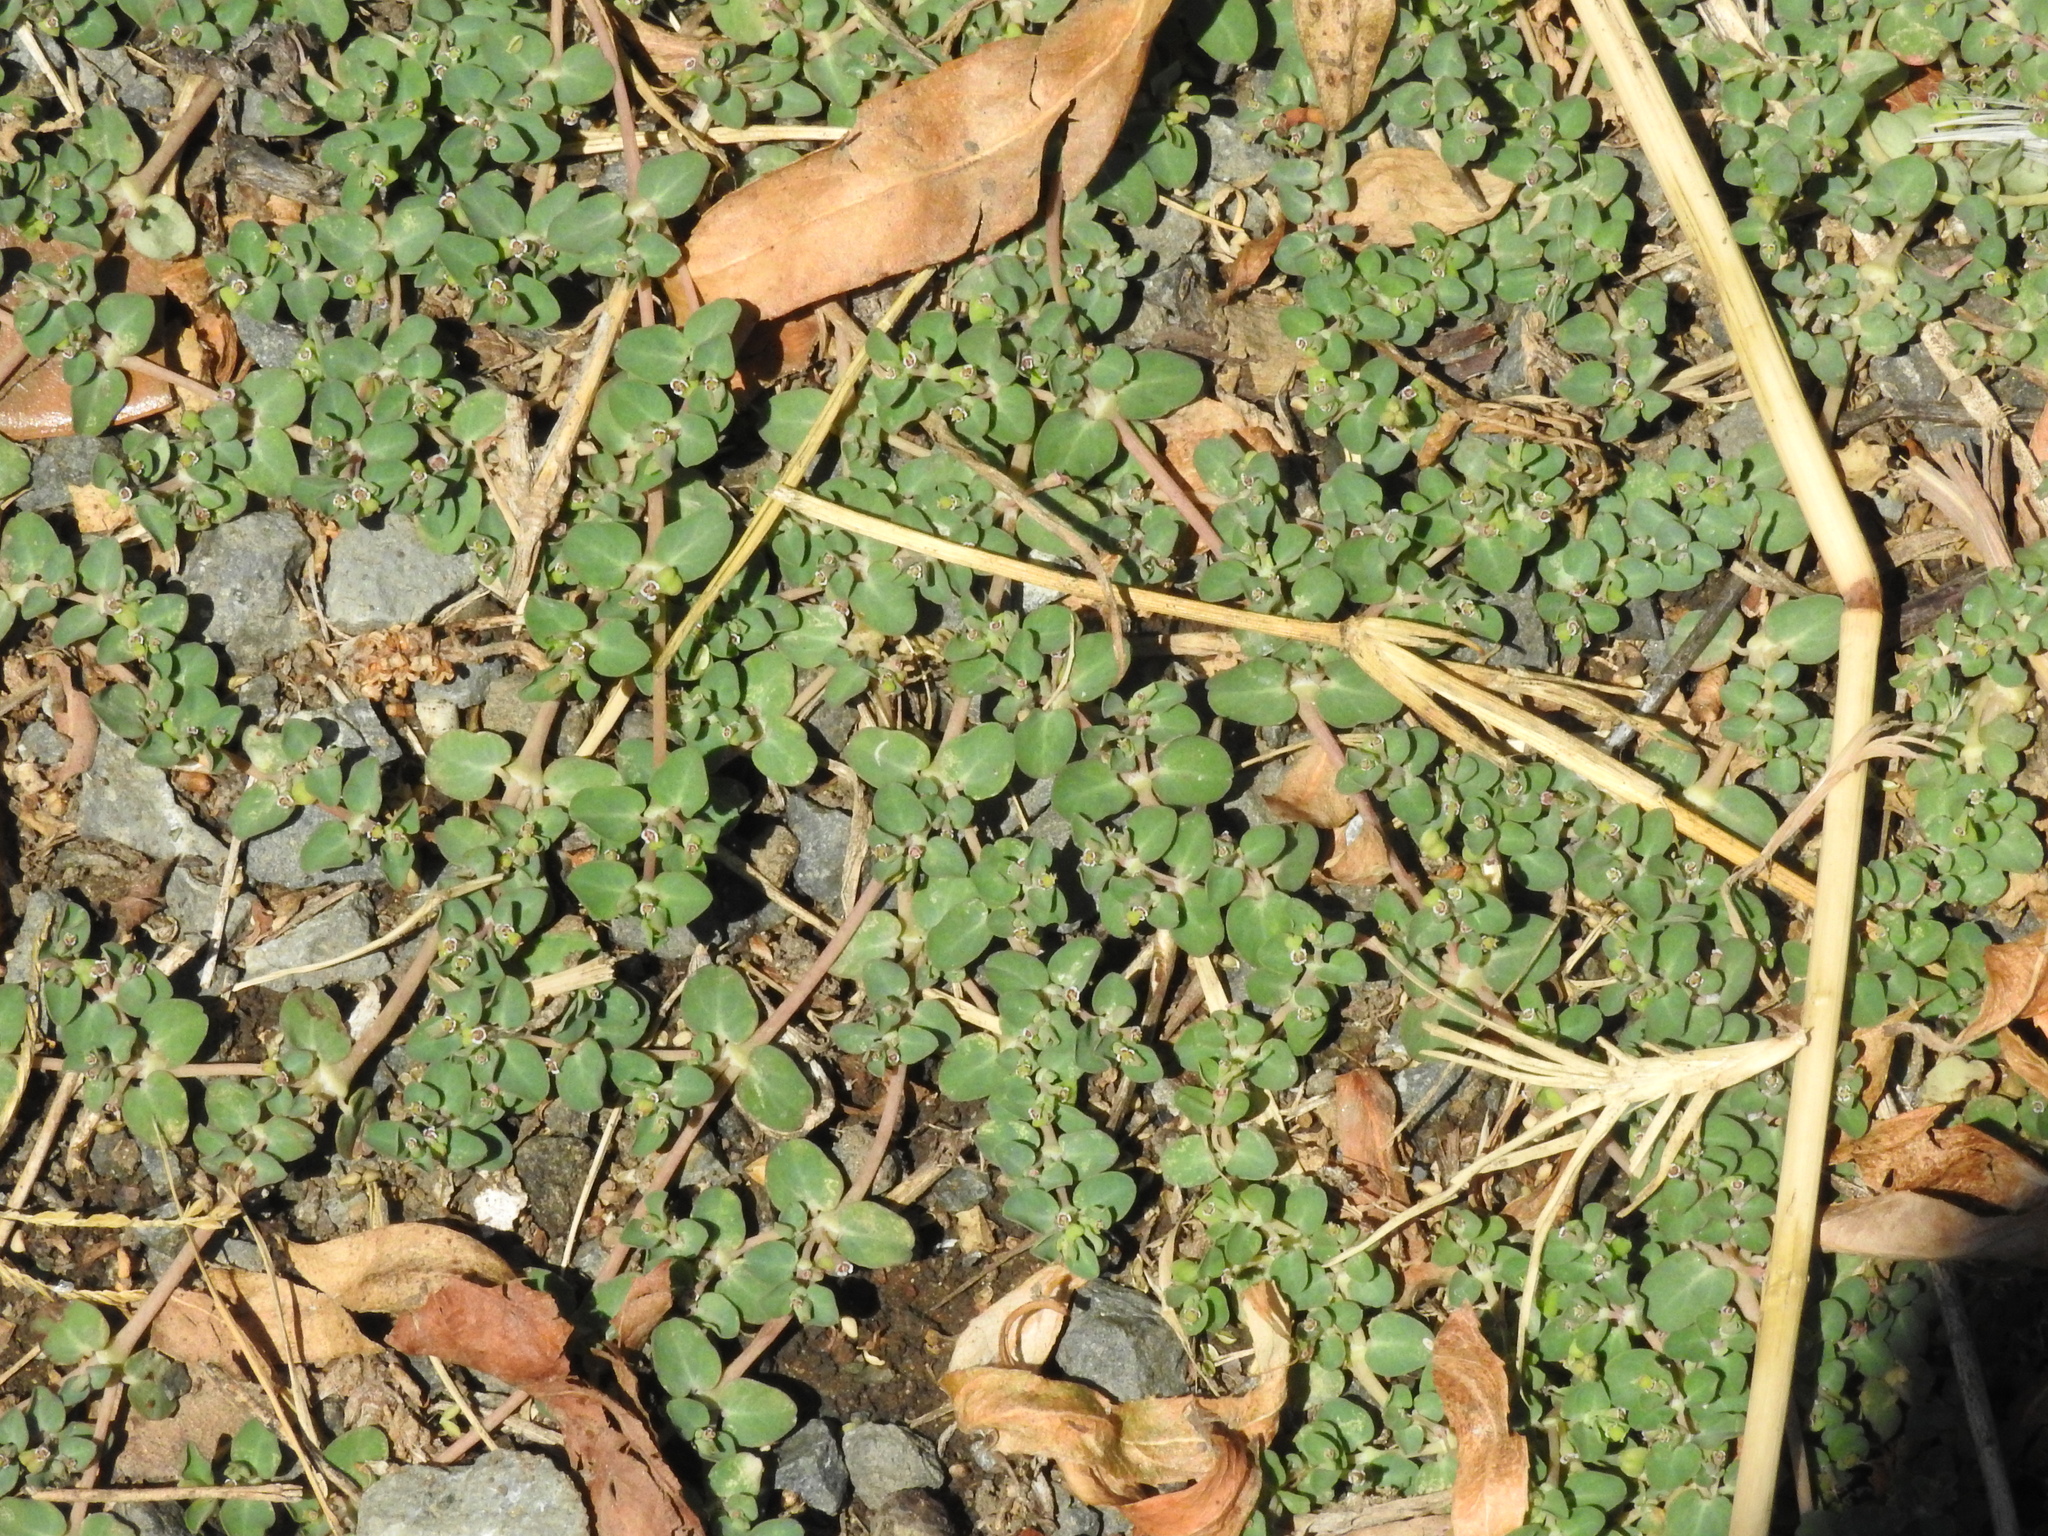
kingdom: Plantae
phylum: Tracheophyta
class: Magnoliopsida
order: Malpighiales
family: Euphorbiaceae
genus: Euphorbia
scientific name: Euphorbia serpens
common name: Matted sandmat
